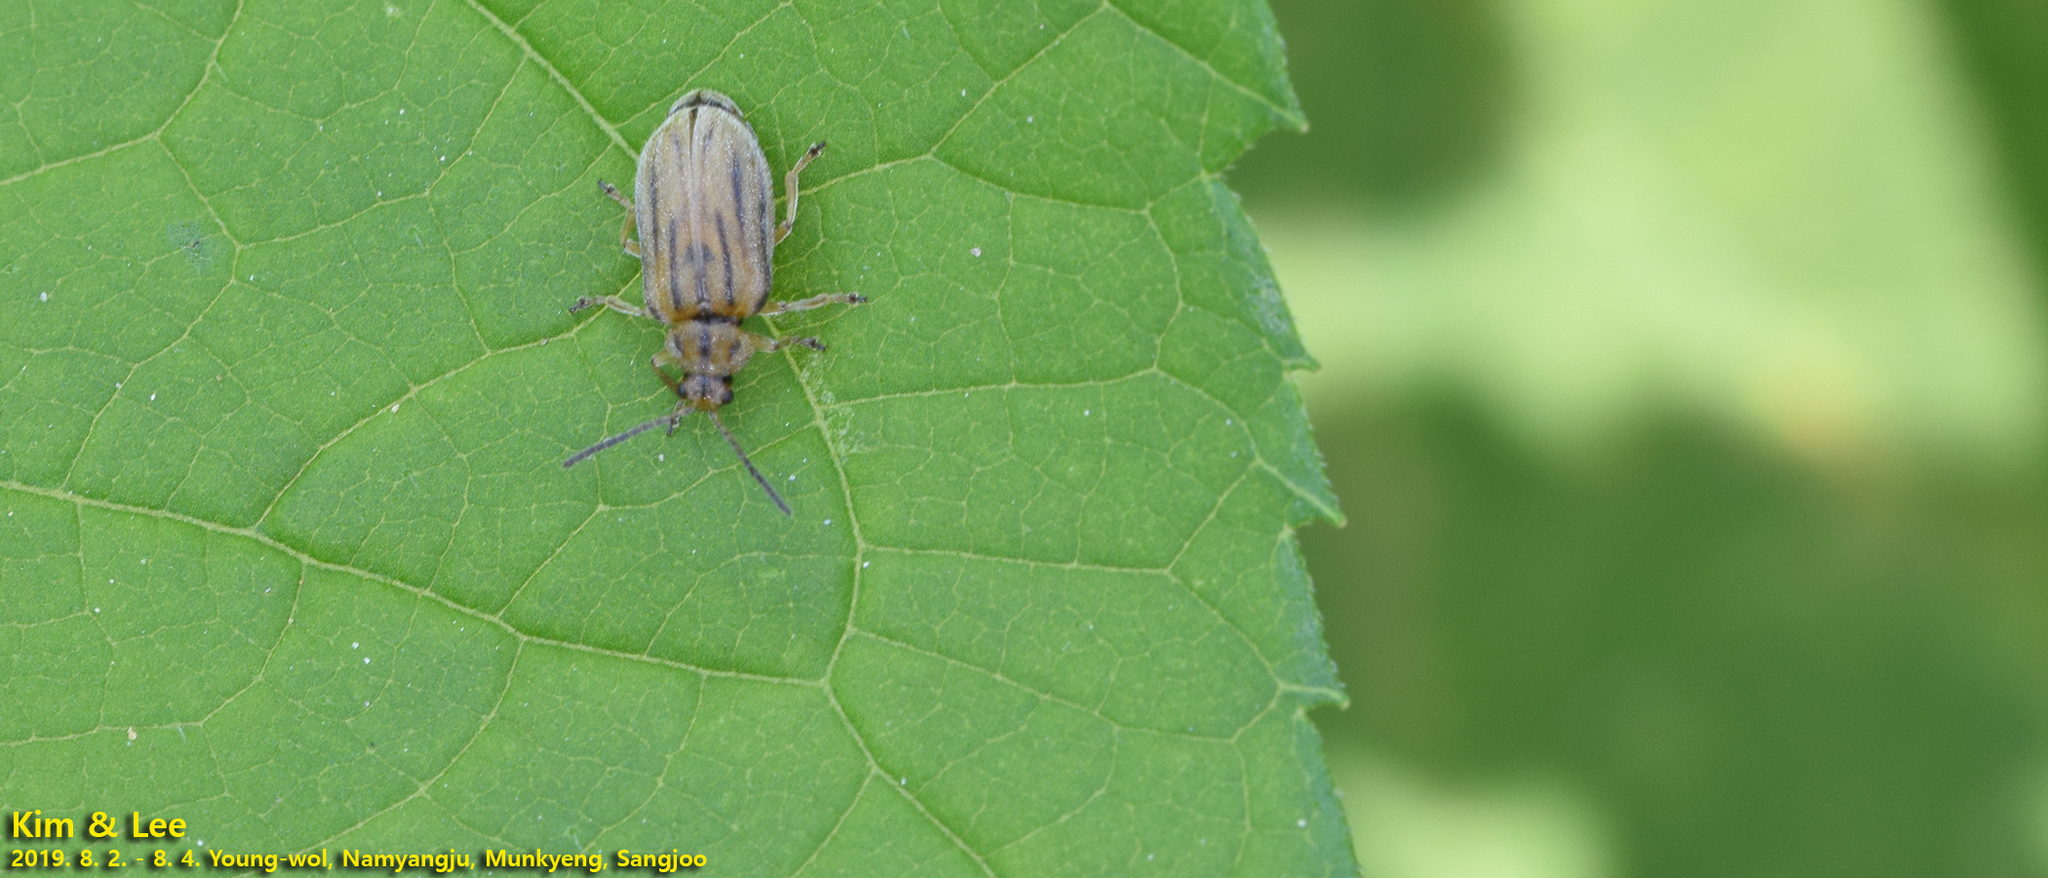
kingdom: Animalia
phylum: Arthropoda
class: Insecta
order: Coleoptera
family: Chrysomelidae
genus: Ophraella
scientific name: Ophraella communa
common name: Ragweed leaf beetle
